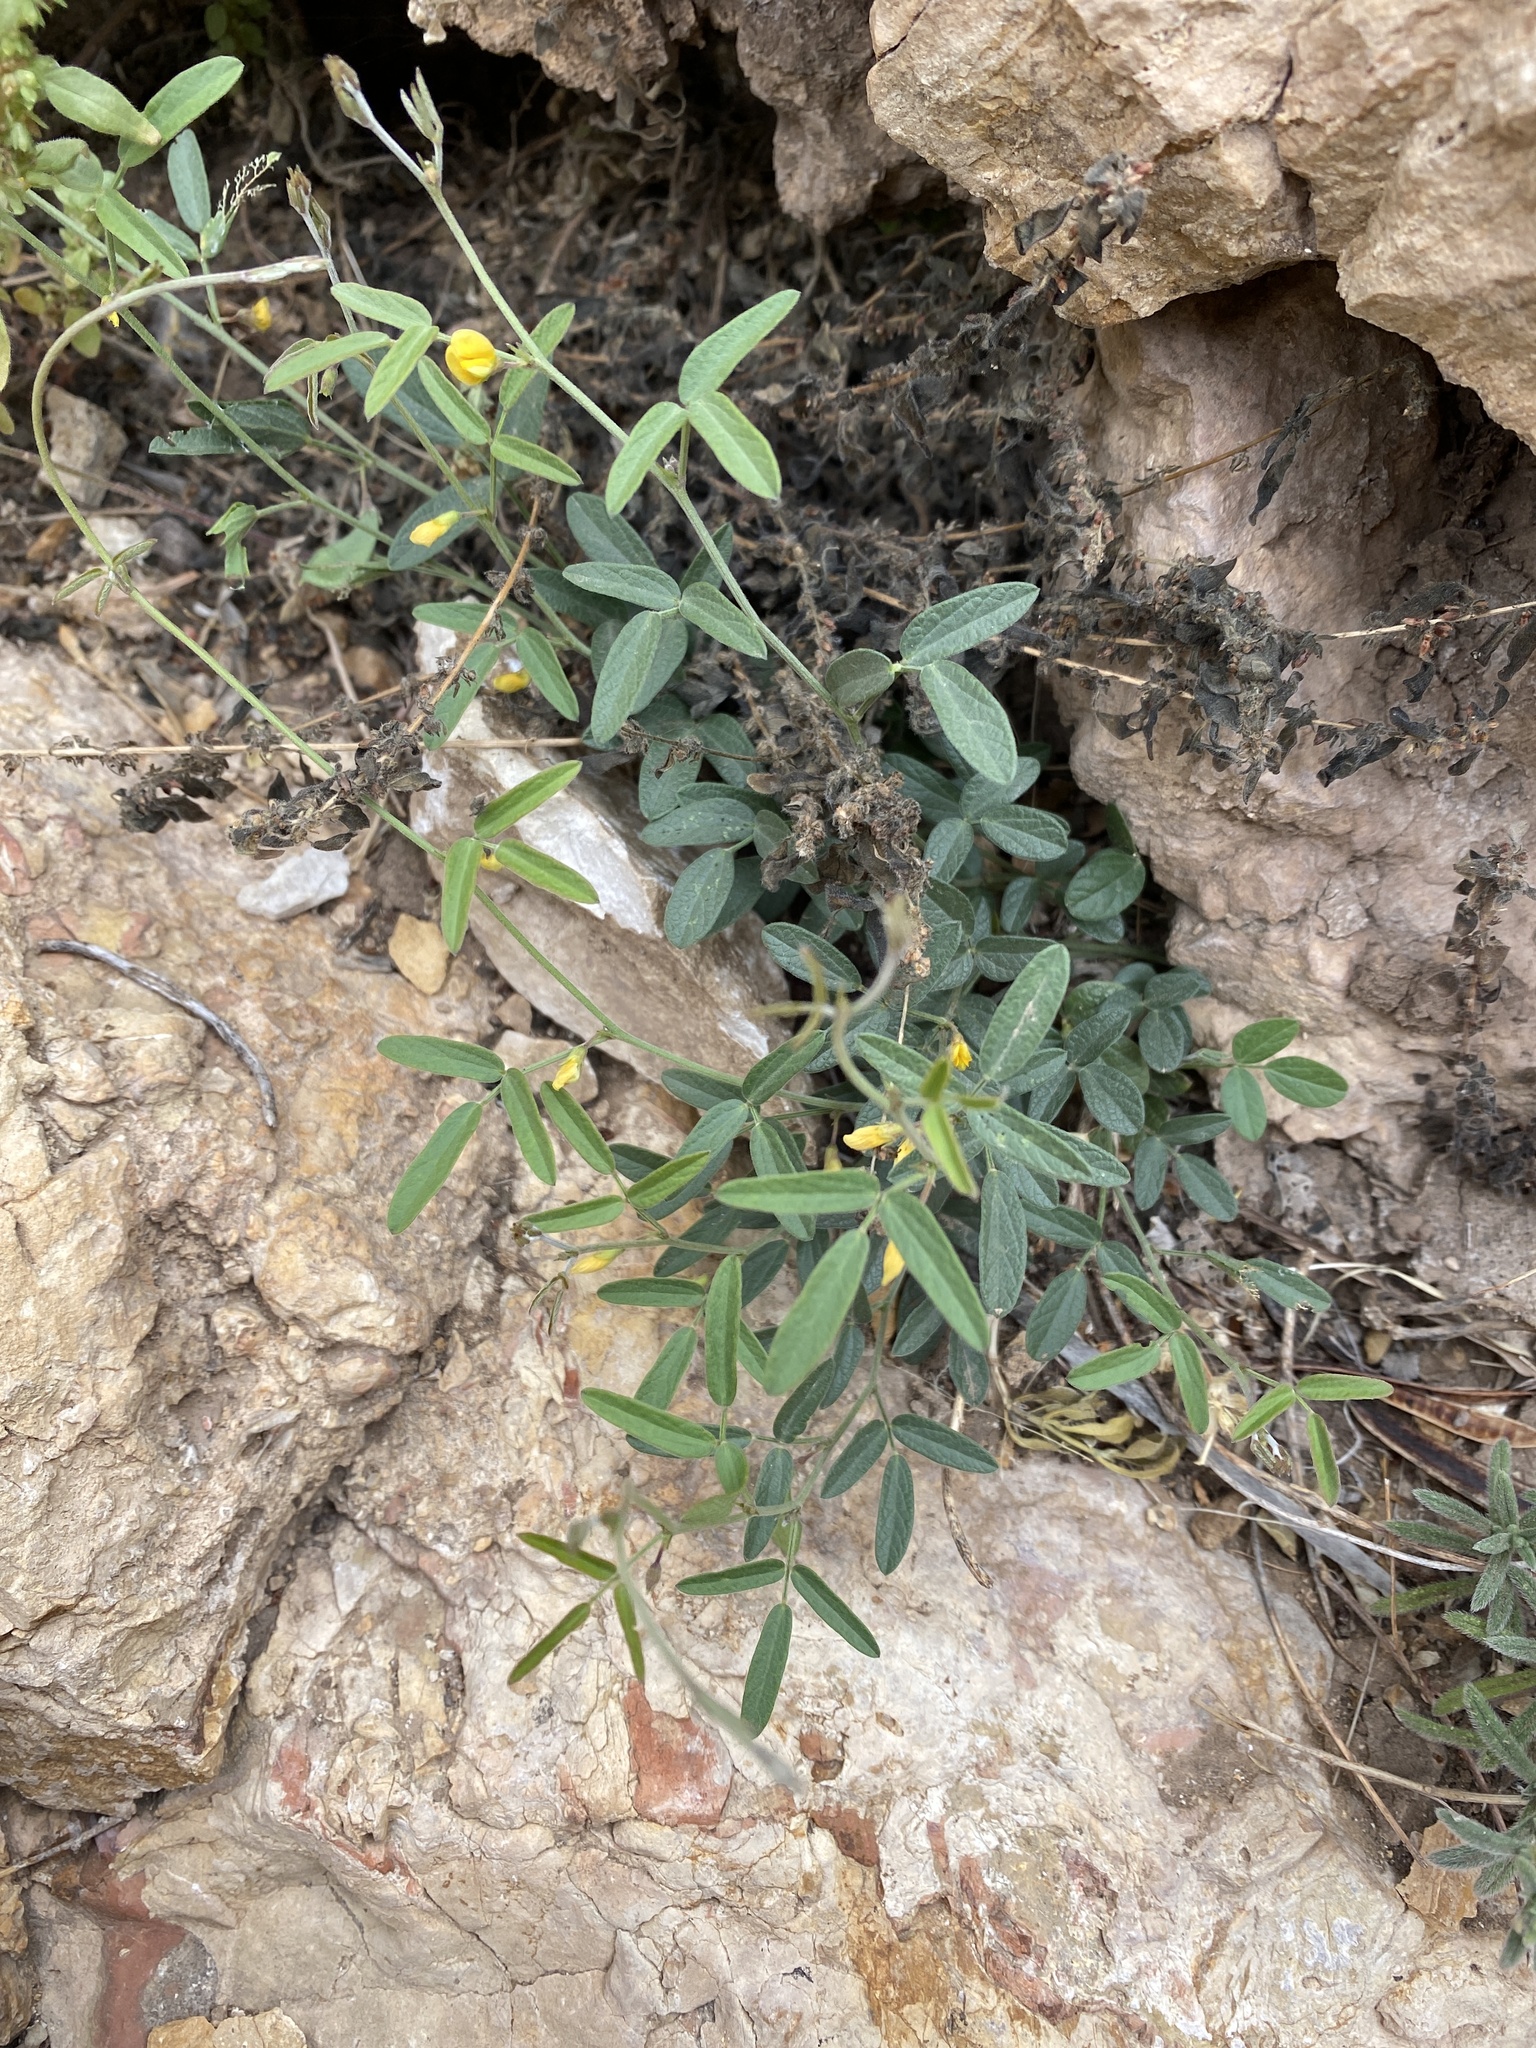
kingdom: Plantae
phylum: Tracheophyta
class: Magnoliopsida
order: Fabales
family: Fabaceae
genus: Rhynchosia
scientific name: Rhynchosia senna
